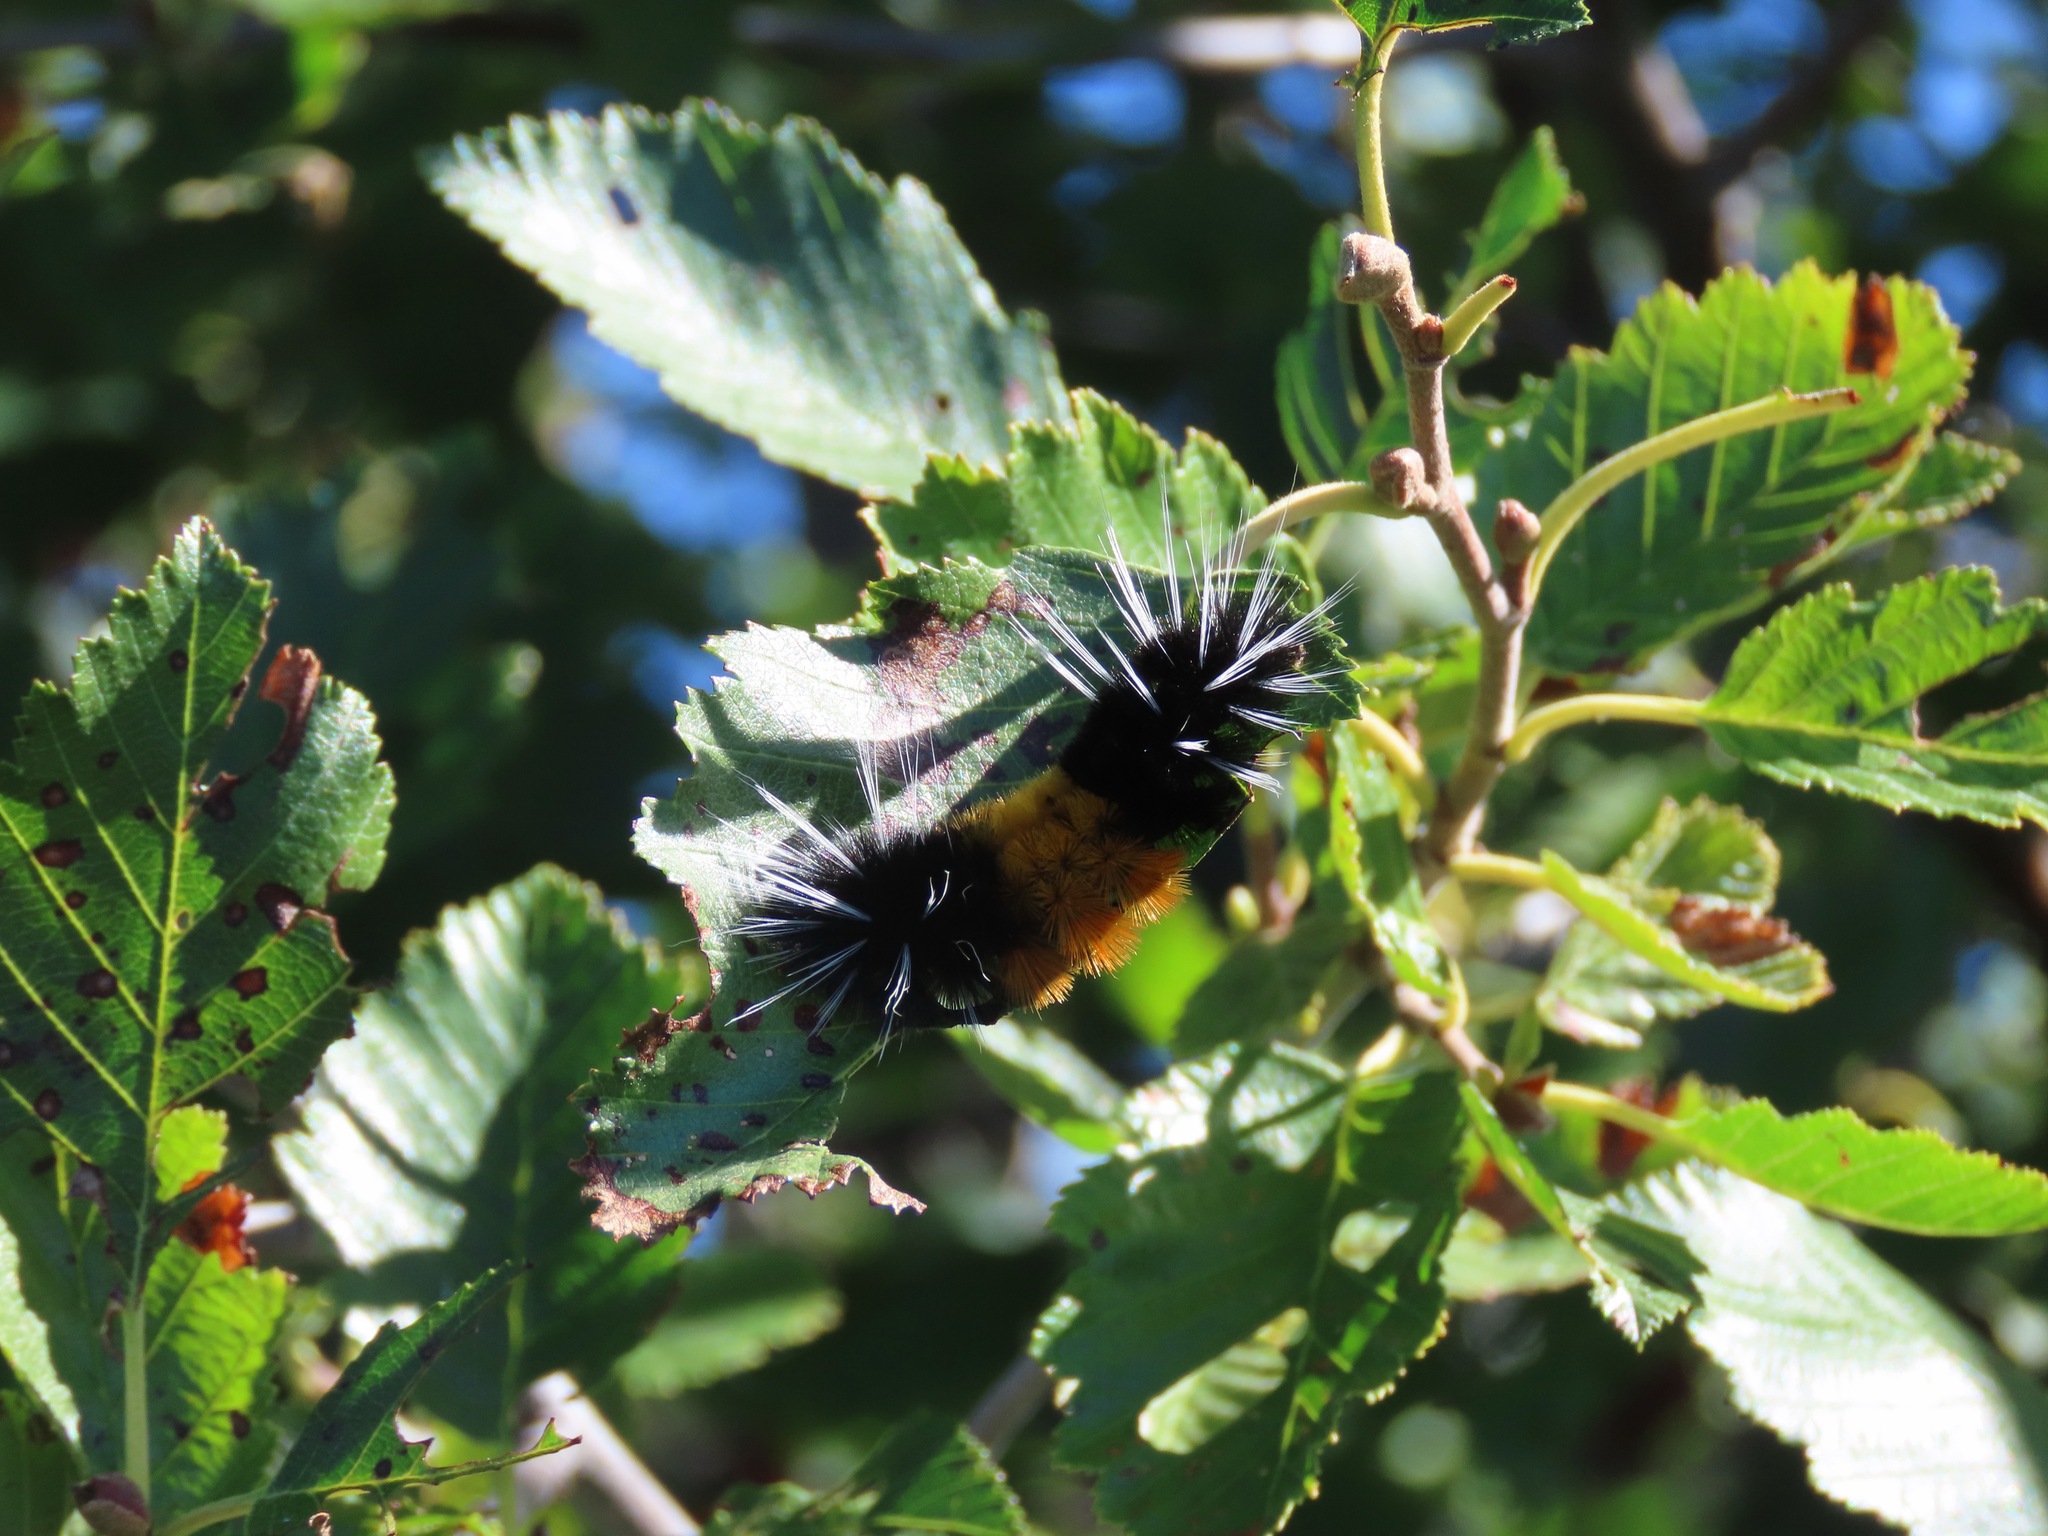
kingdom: Animalia
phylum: Arthropoda
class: Insecta
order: Lepidoptera
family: Erebidae
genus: Lophocampa
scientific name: Lophocampa maculata
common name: Spotted tussock moth
